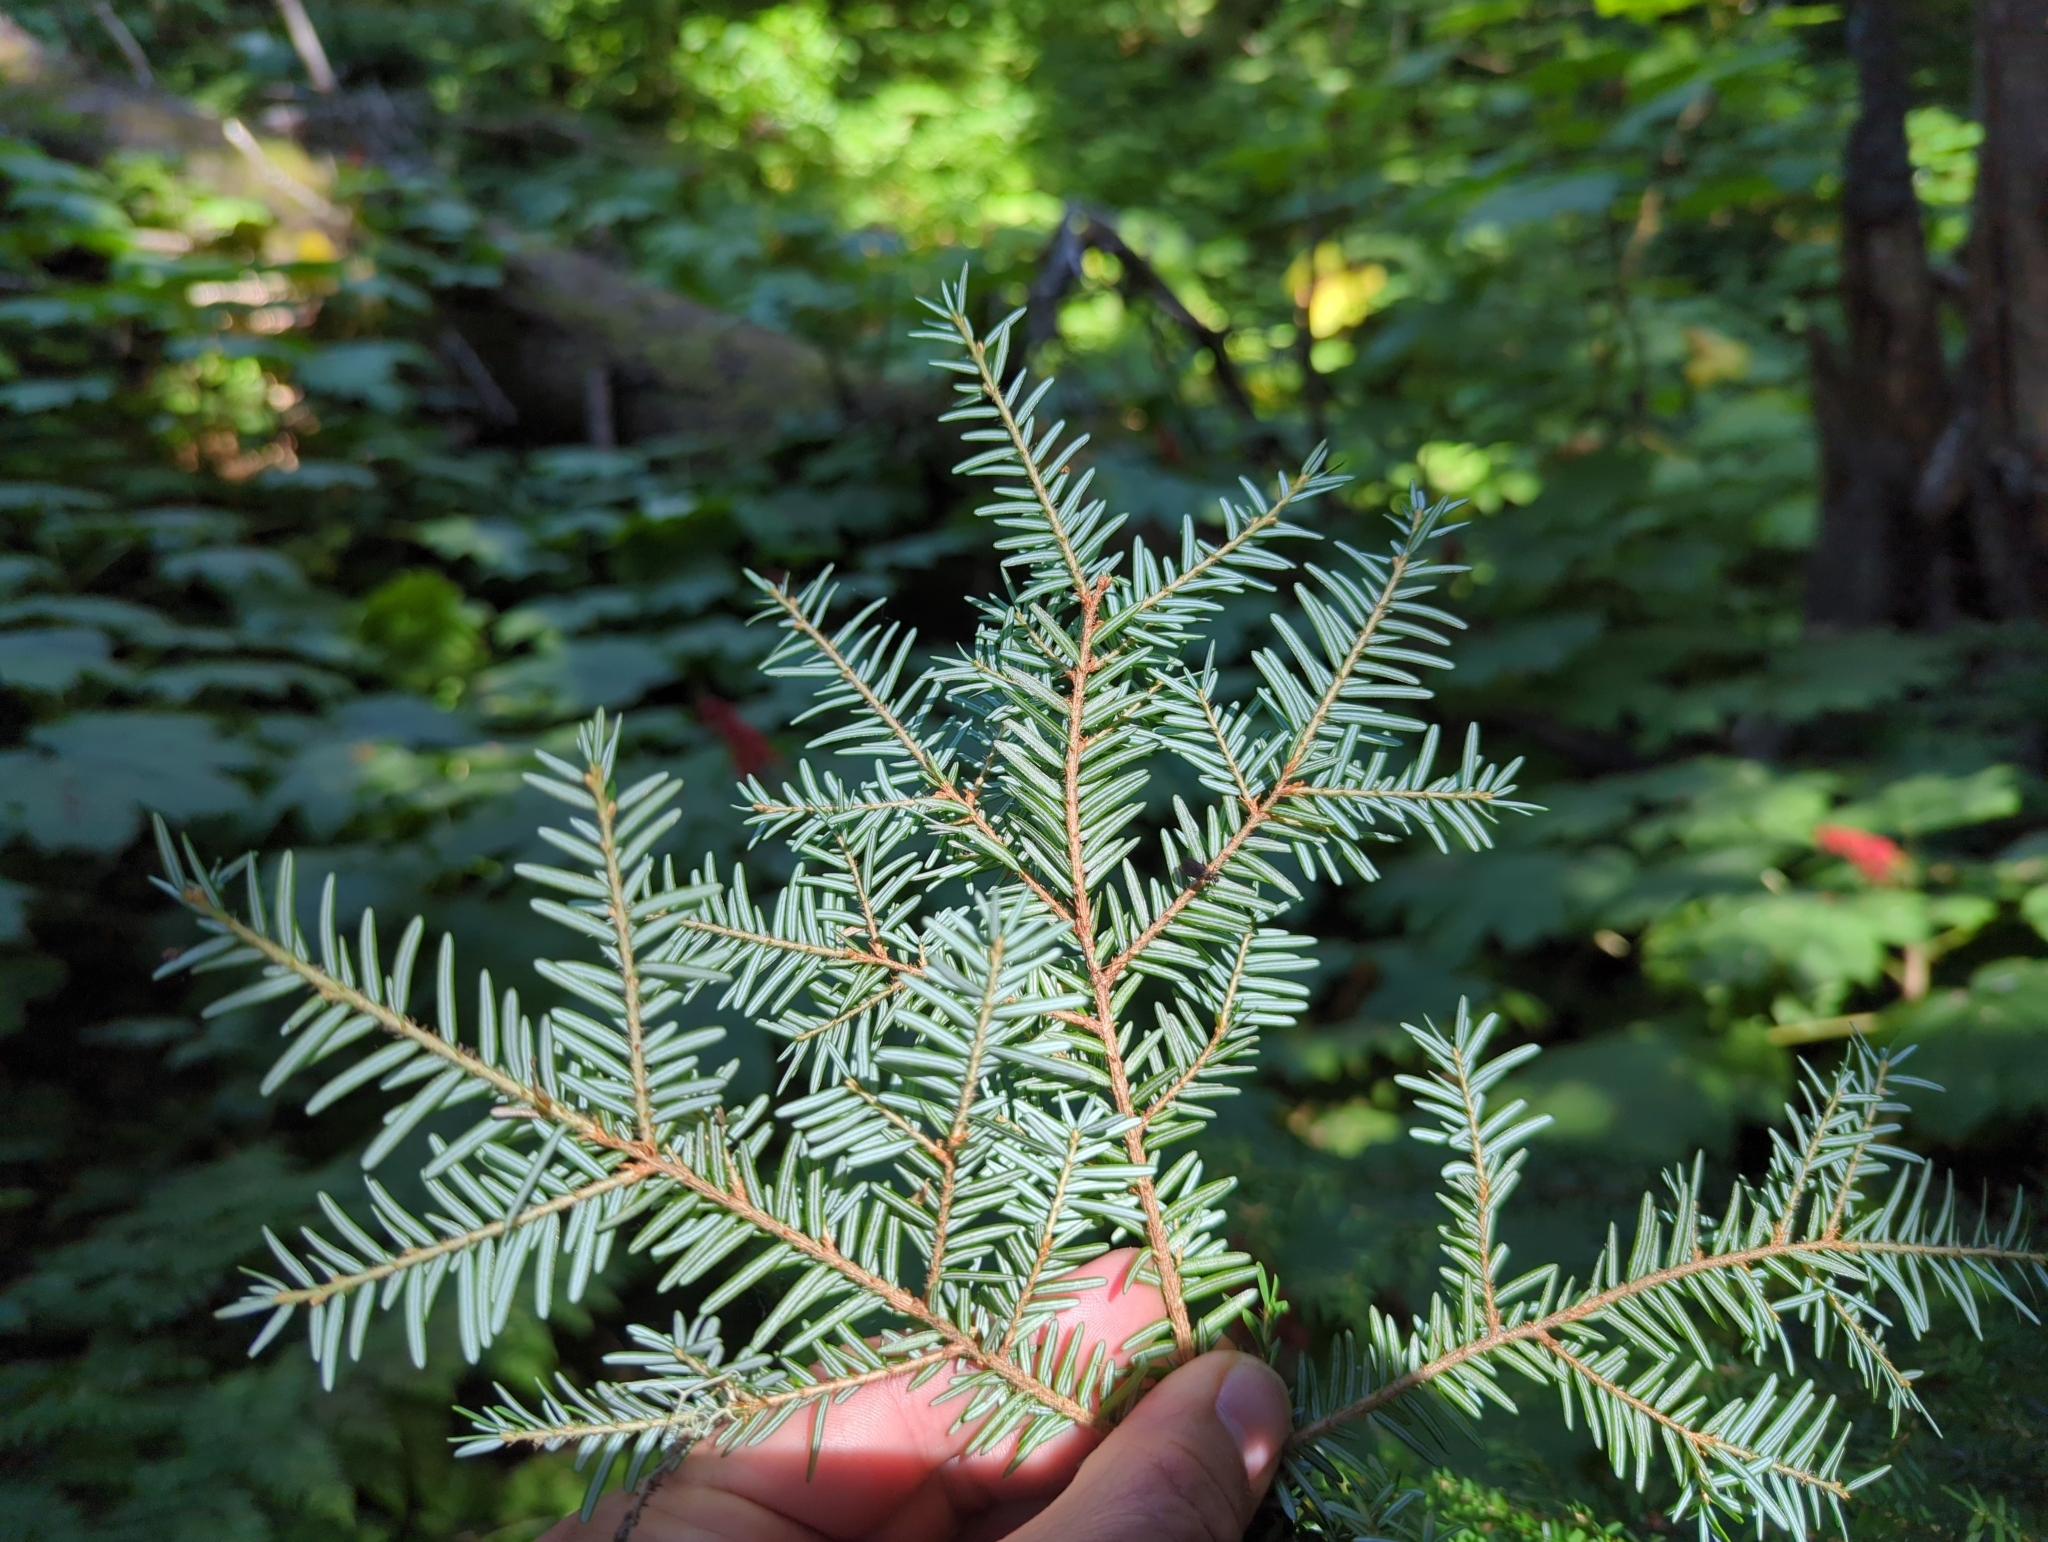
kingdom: Plantae
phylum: Tracheophyta
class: Pinopsida
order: Pinales
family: Pinaceae
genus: Tsuga
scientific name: Tsuga heterophylla
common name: Western hemlock
